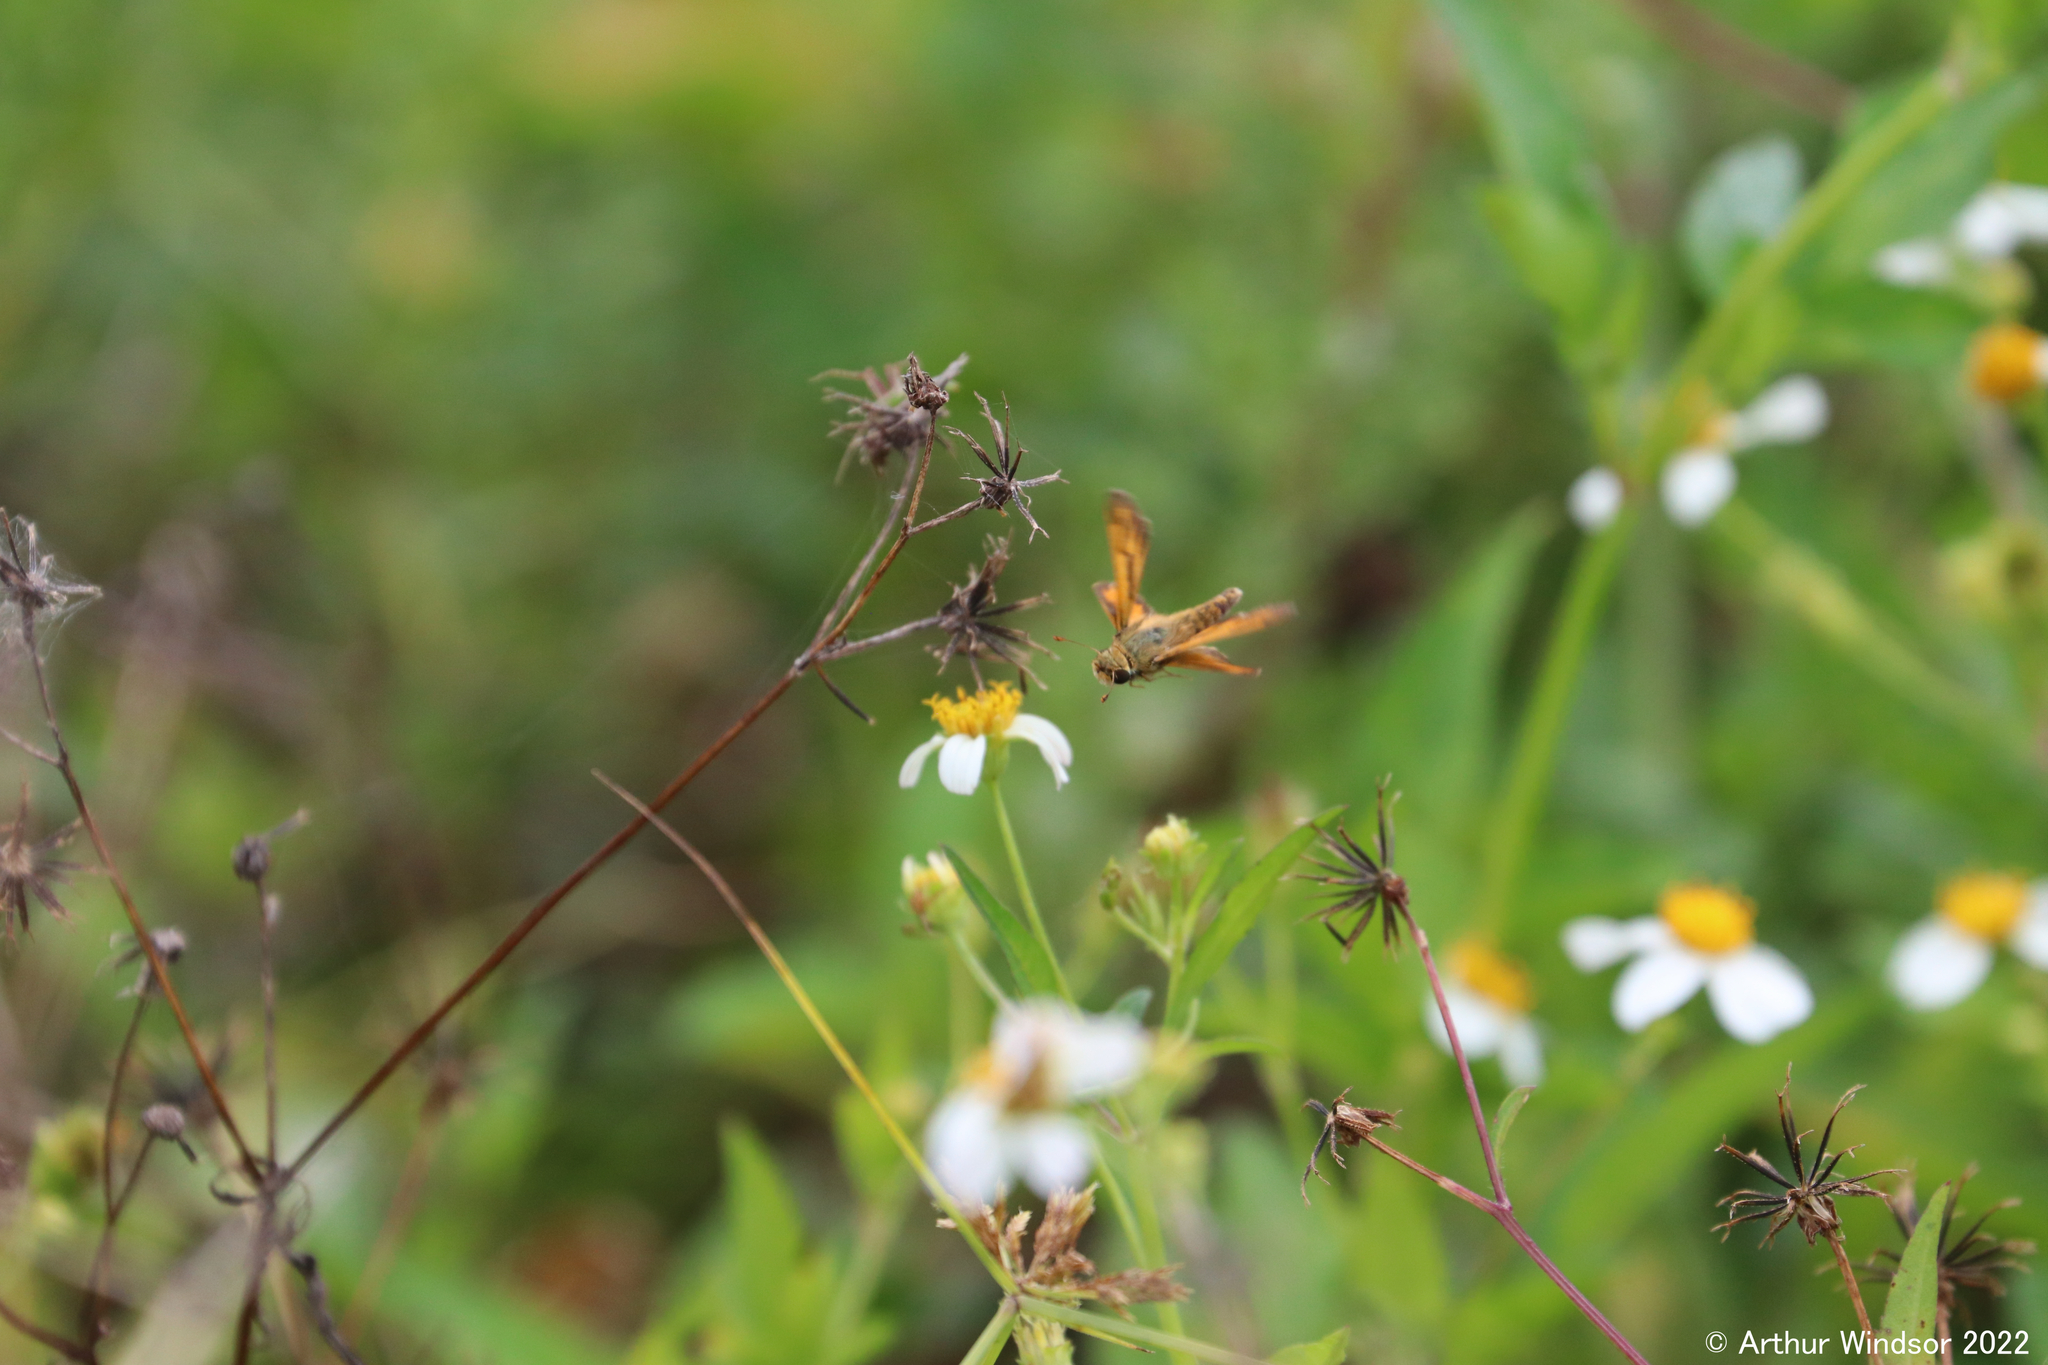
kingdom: Animalia
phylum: Arthropoda
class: Insecta
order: Lepidoptera
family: Hesperiidae
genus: Hylephila
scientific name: Hylephila phyleus
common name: Fiery skipper
